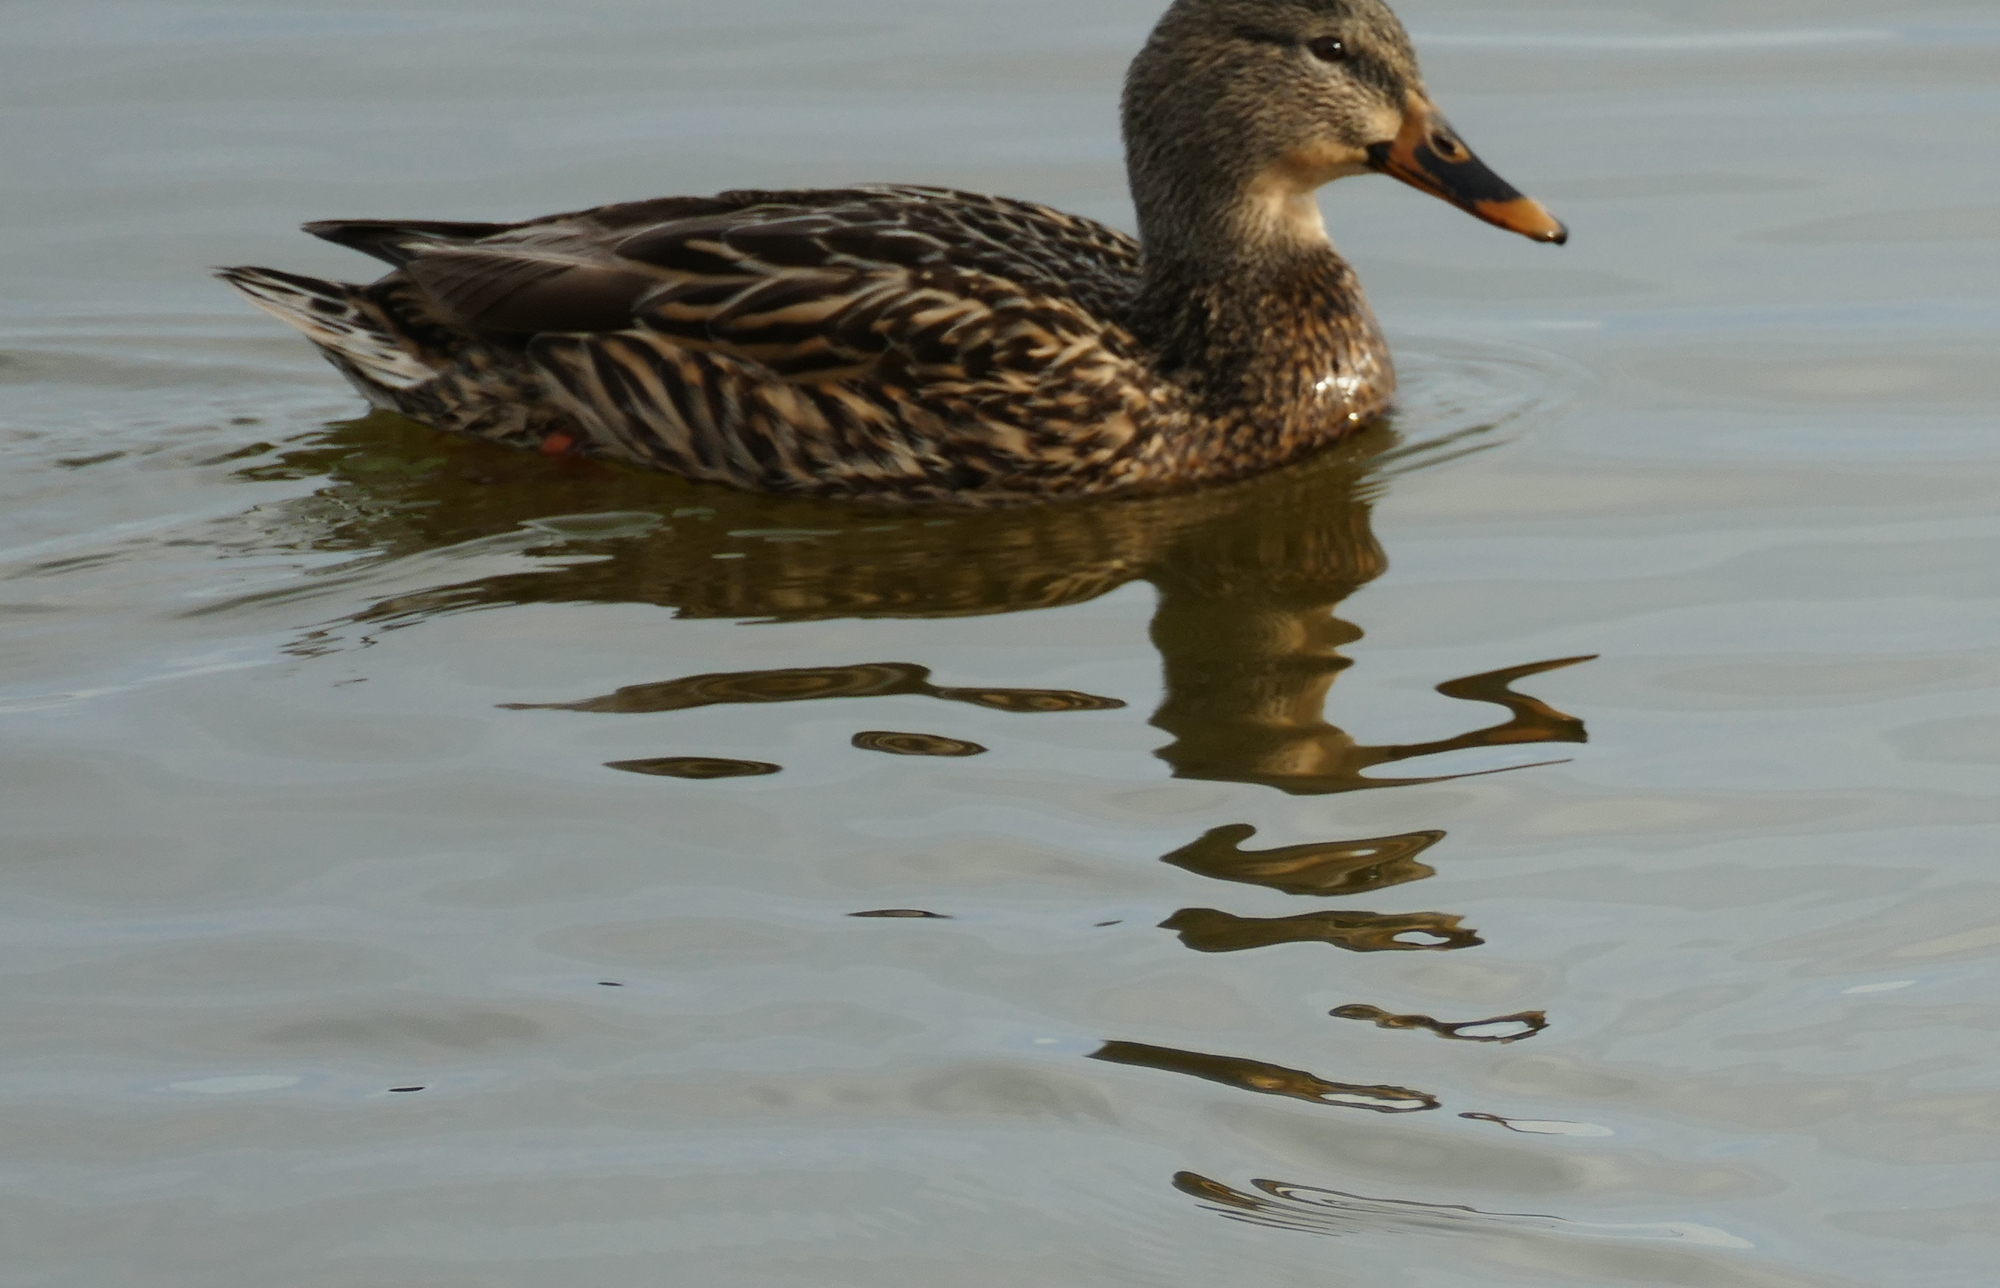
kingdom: Animalia
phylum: Chordata
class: Aves
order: Anseriformes
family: Anatidae
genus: Anas
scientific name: Anas platyrhynchos
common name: Mallard
